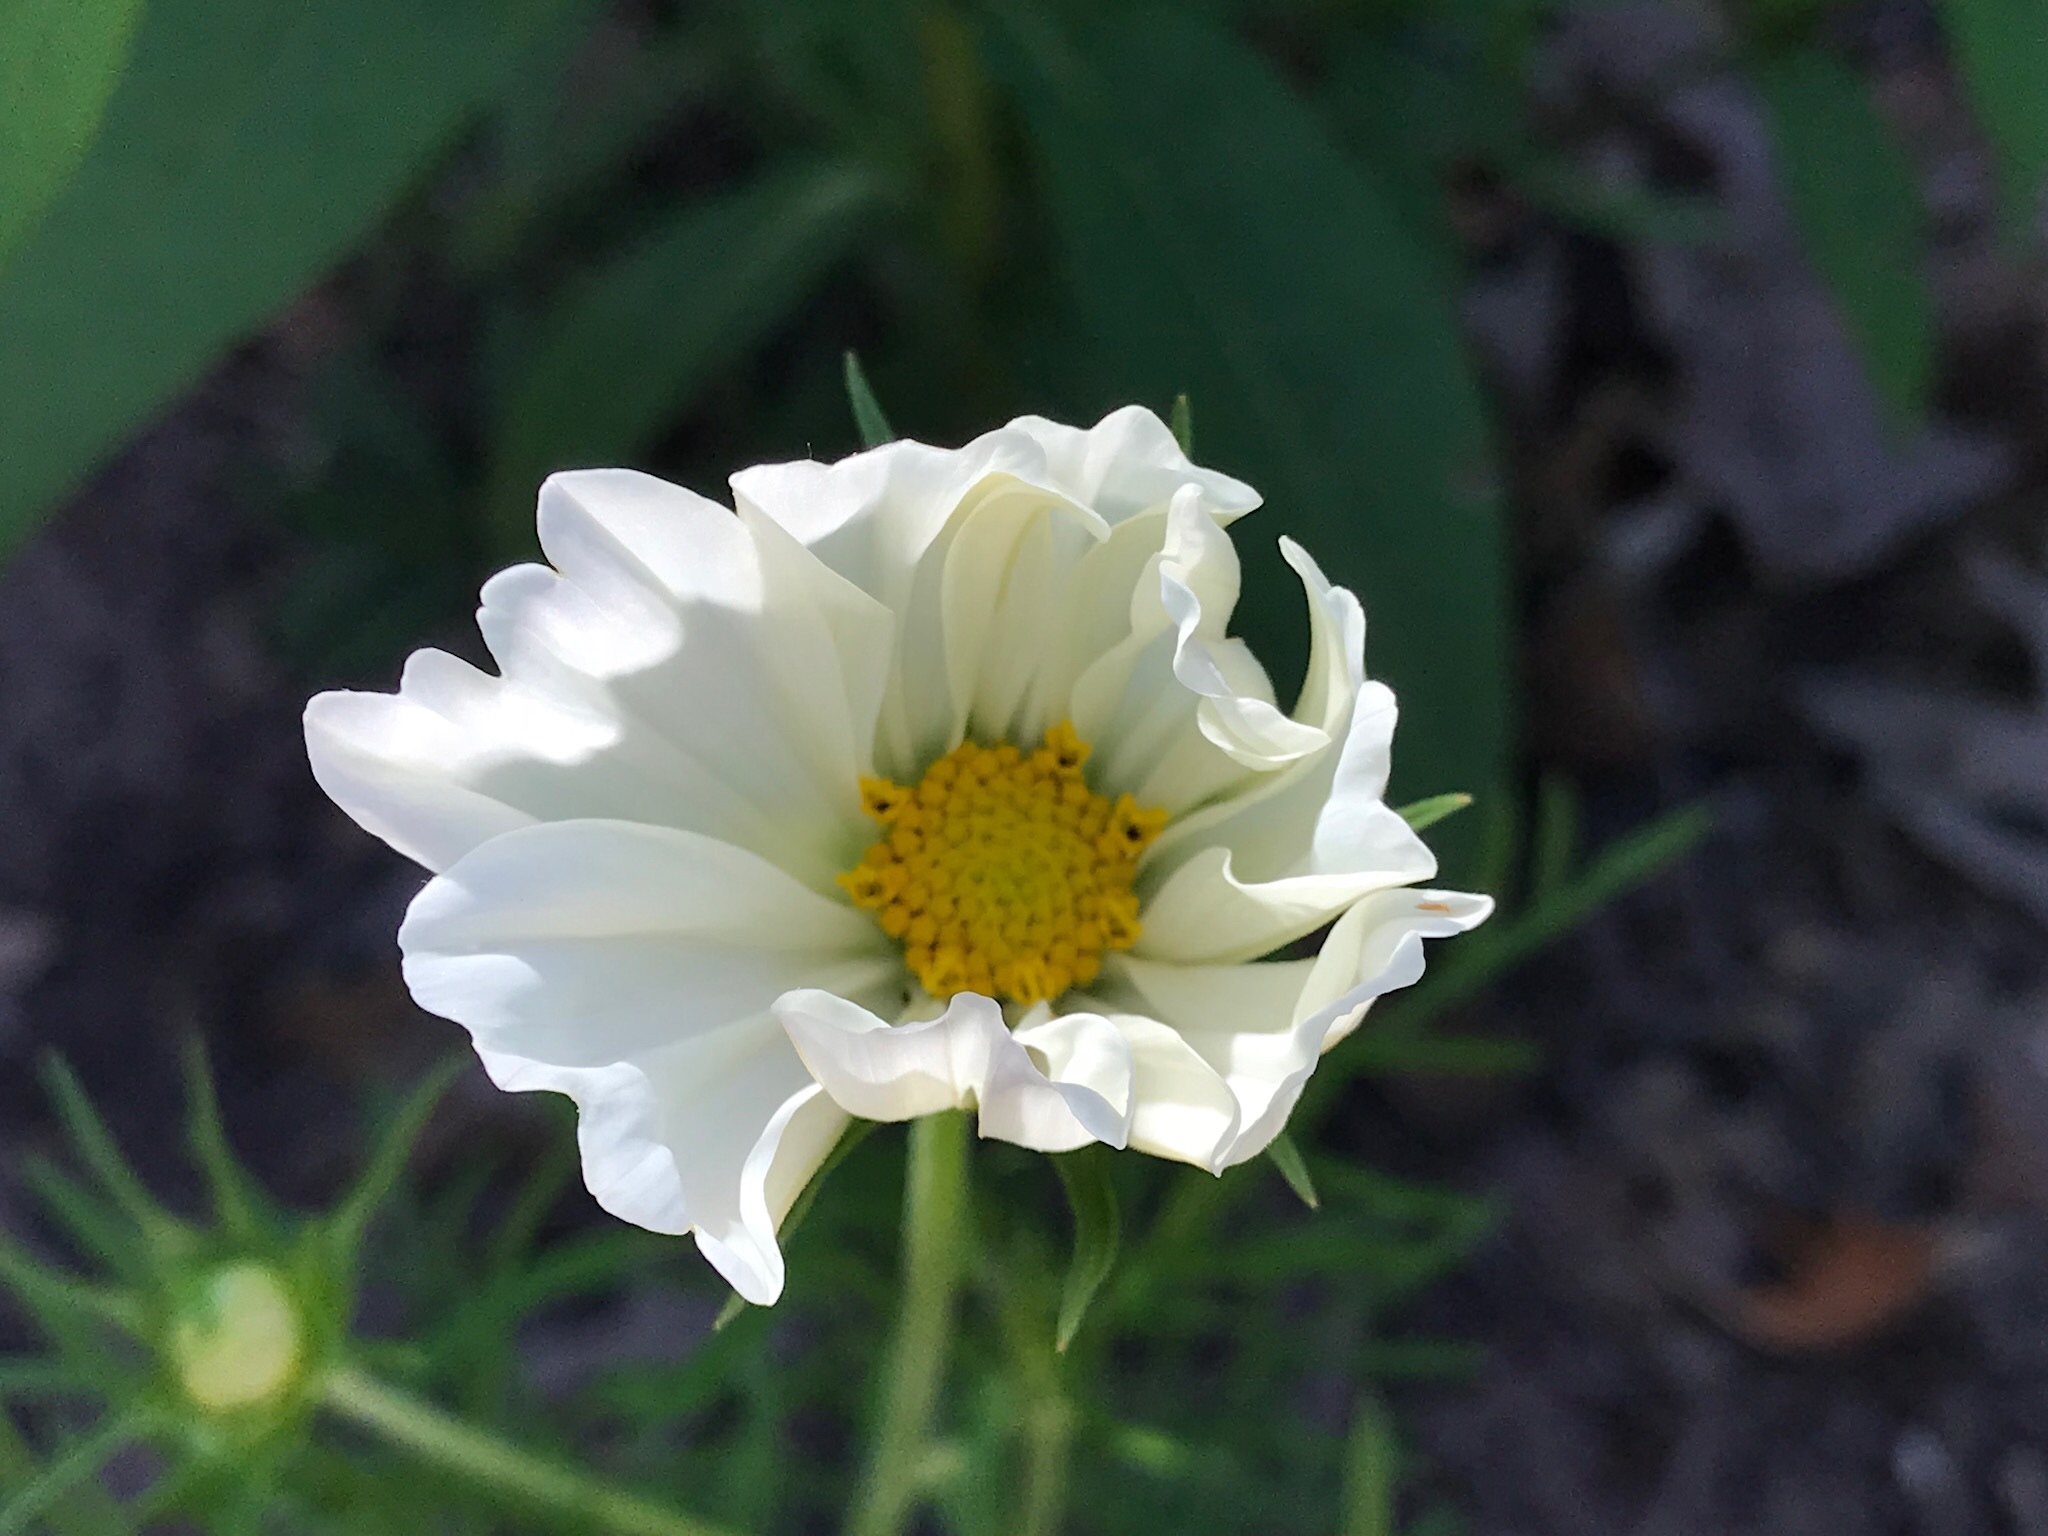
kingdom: Plantae
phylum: Tracheophyta
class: Magnoliopsida
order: Asterales
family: Asteraceae
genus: Cosmos
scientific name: Cosmos bipinnatus
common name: Garden cosmos
